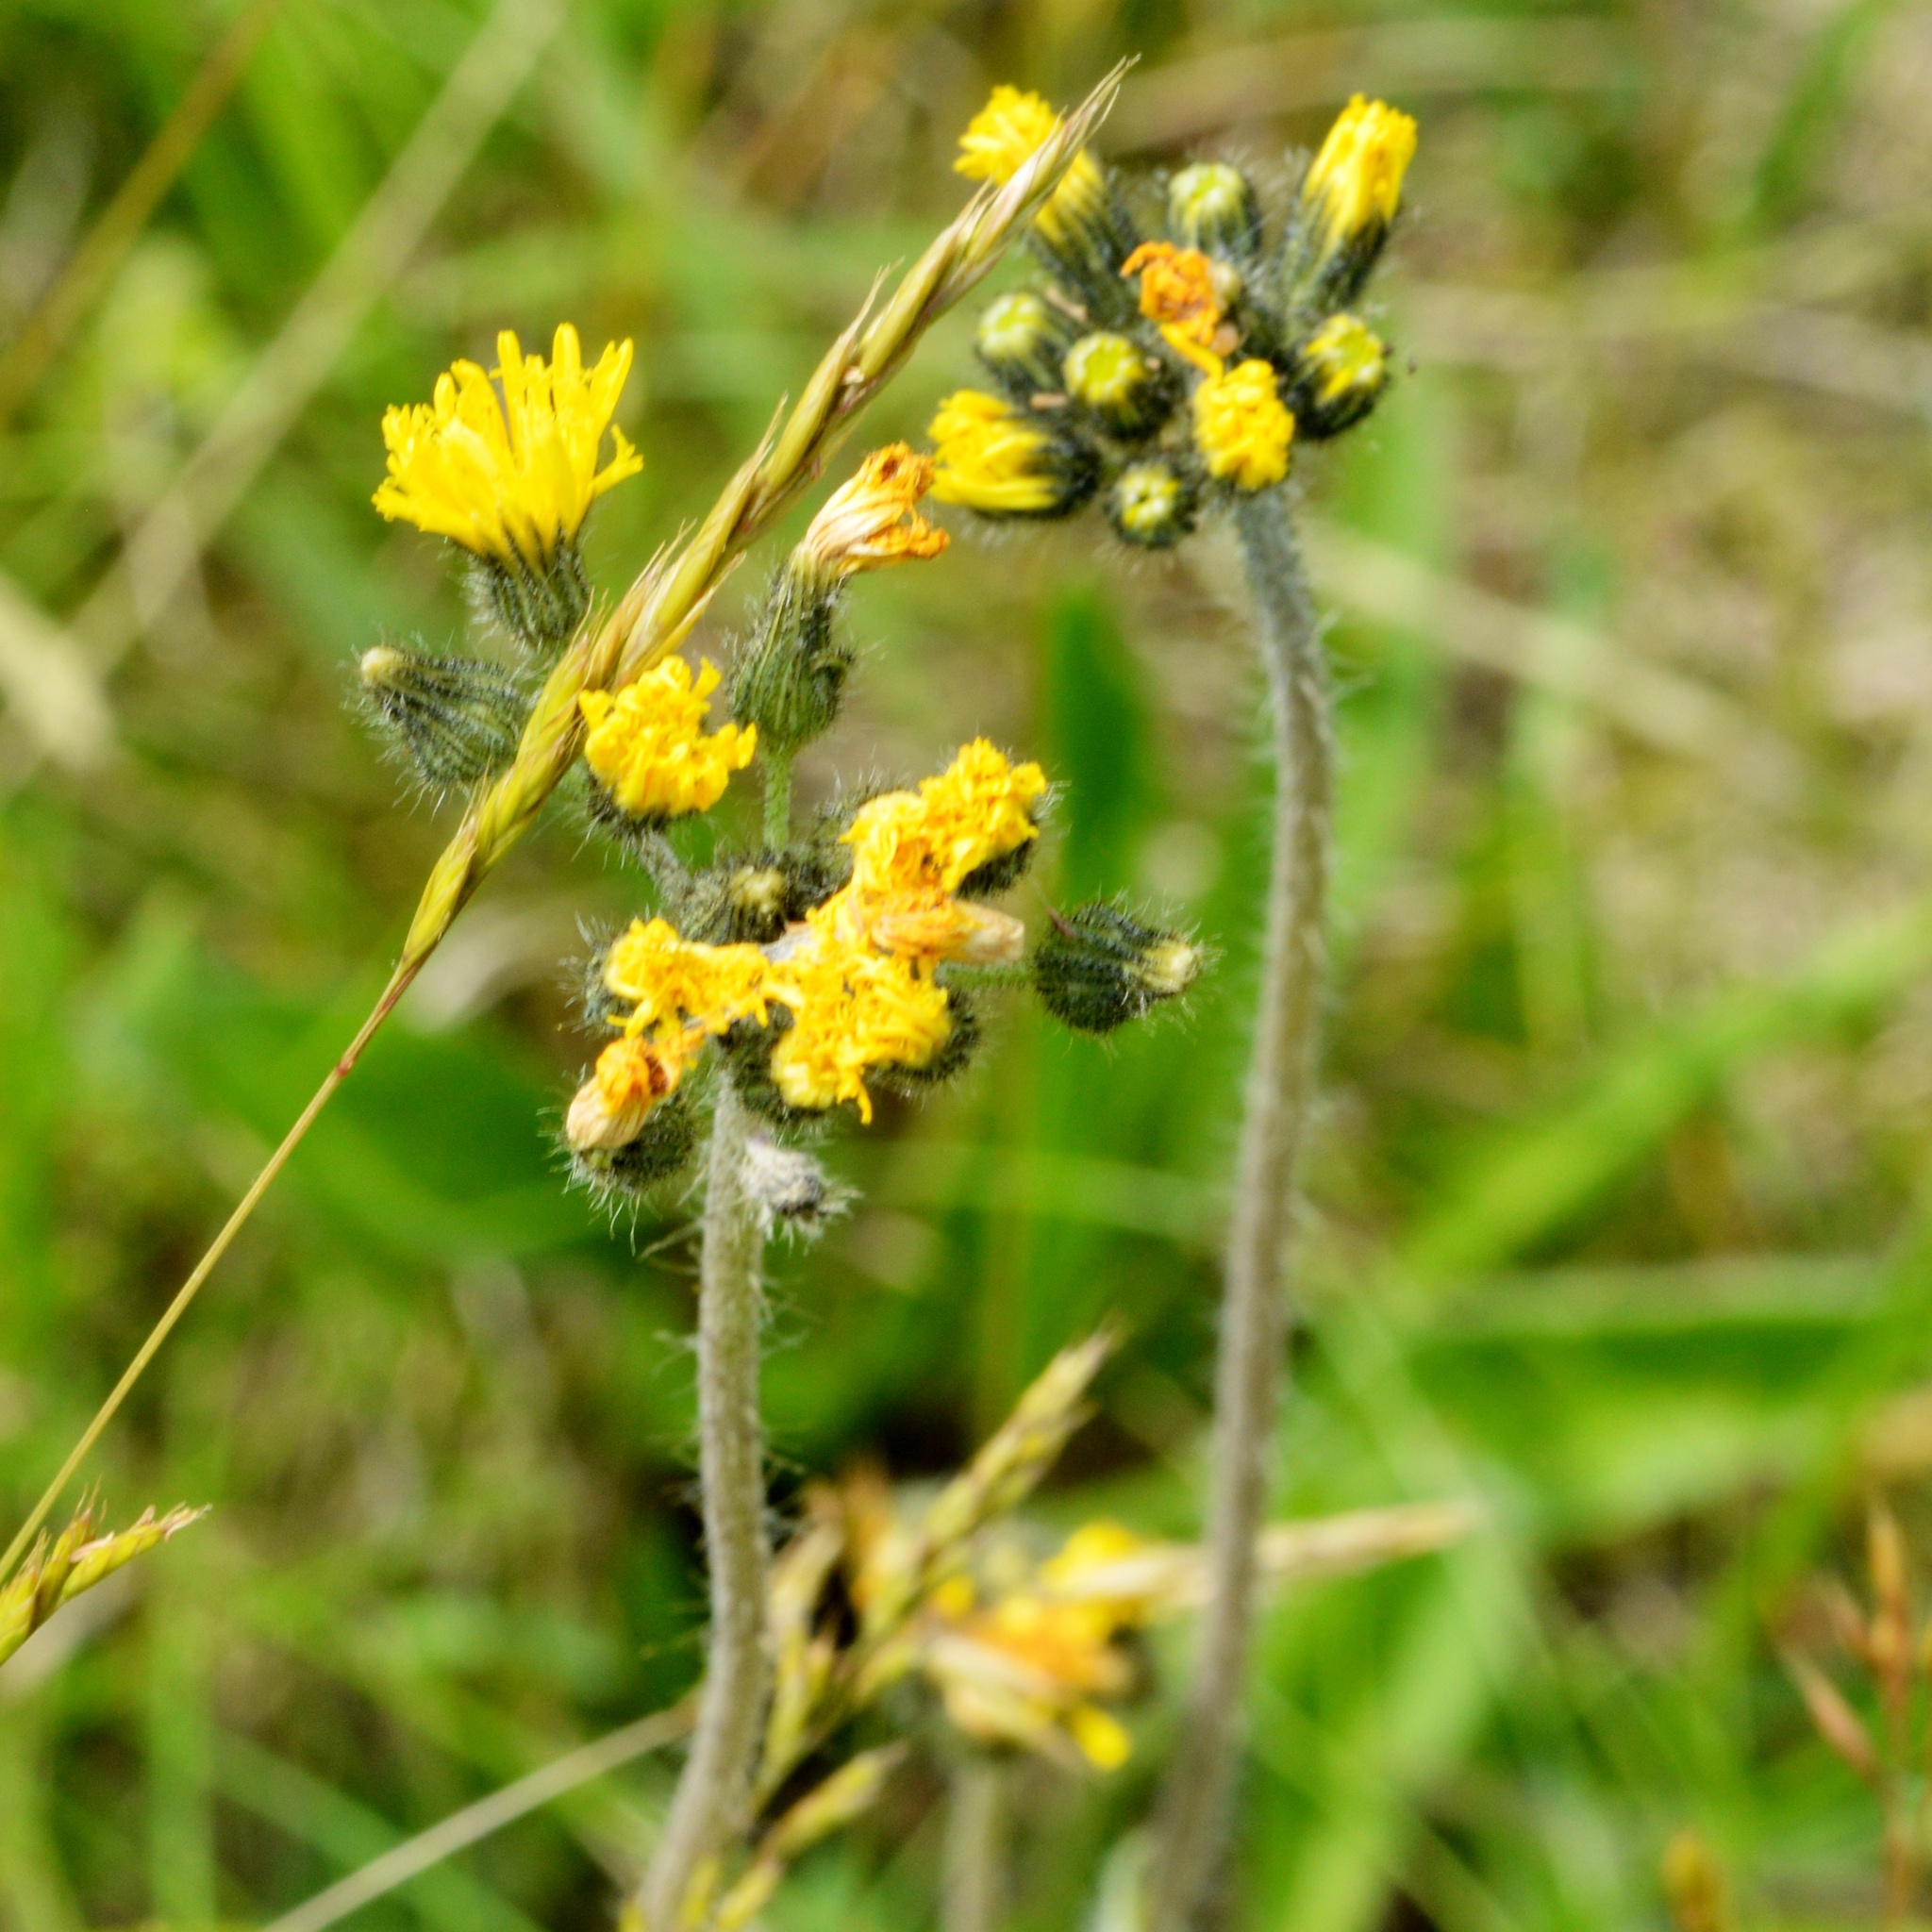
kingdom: Plantae
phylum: Tracheophyta
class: Magnoliopsida
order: Asterales
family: Asteraceae
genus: Pilosella
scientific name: Pilosella caespitosa
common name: Yellow fox-and-cubs
